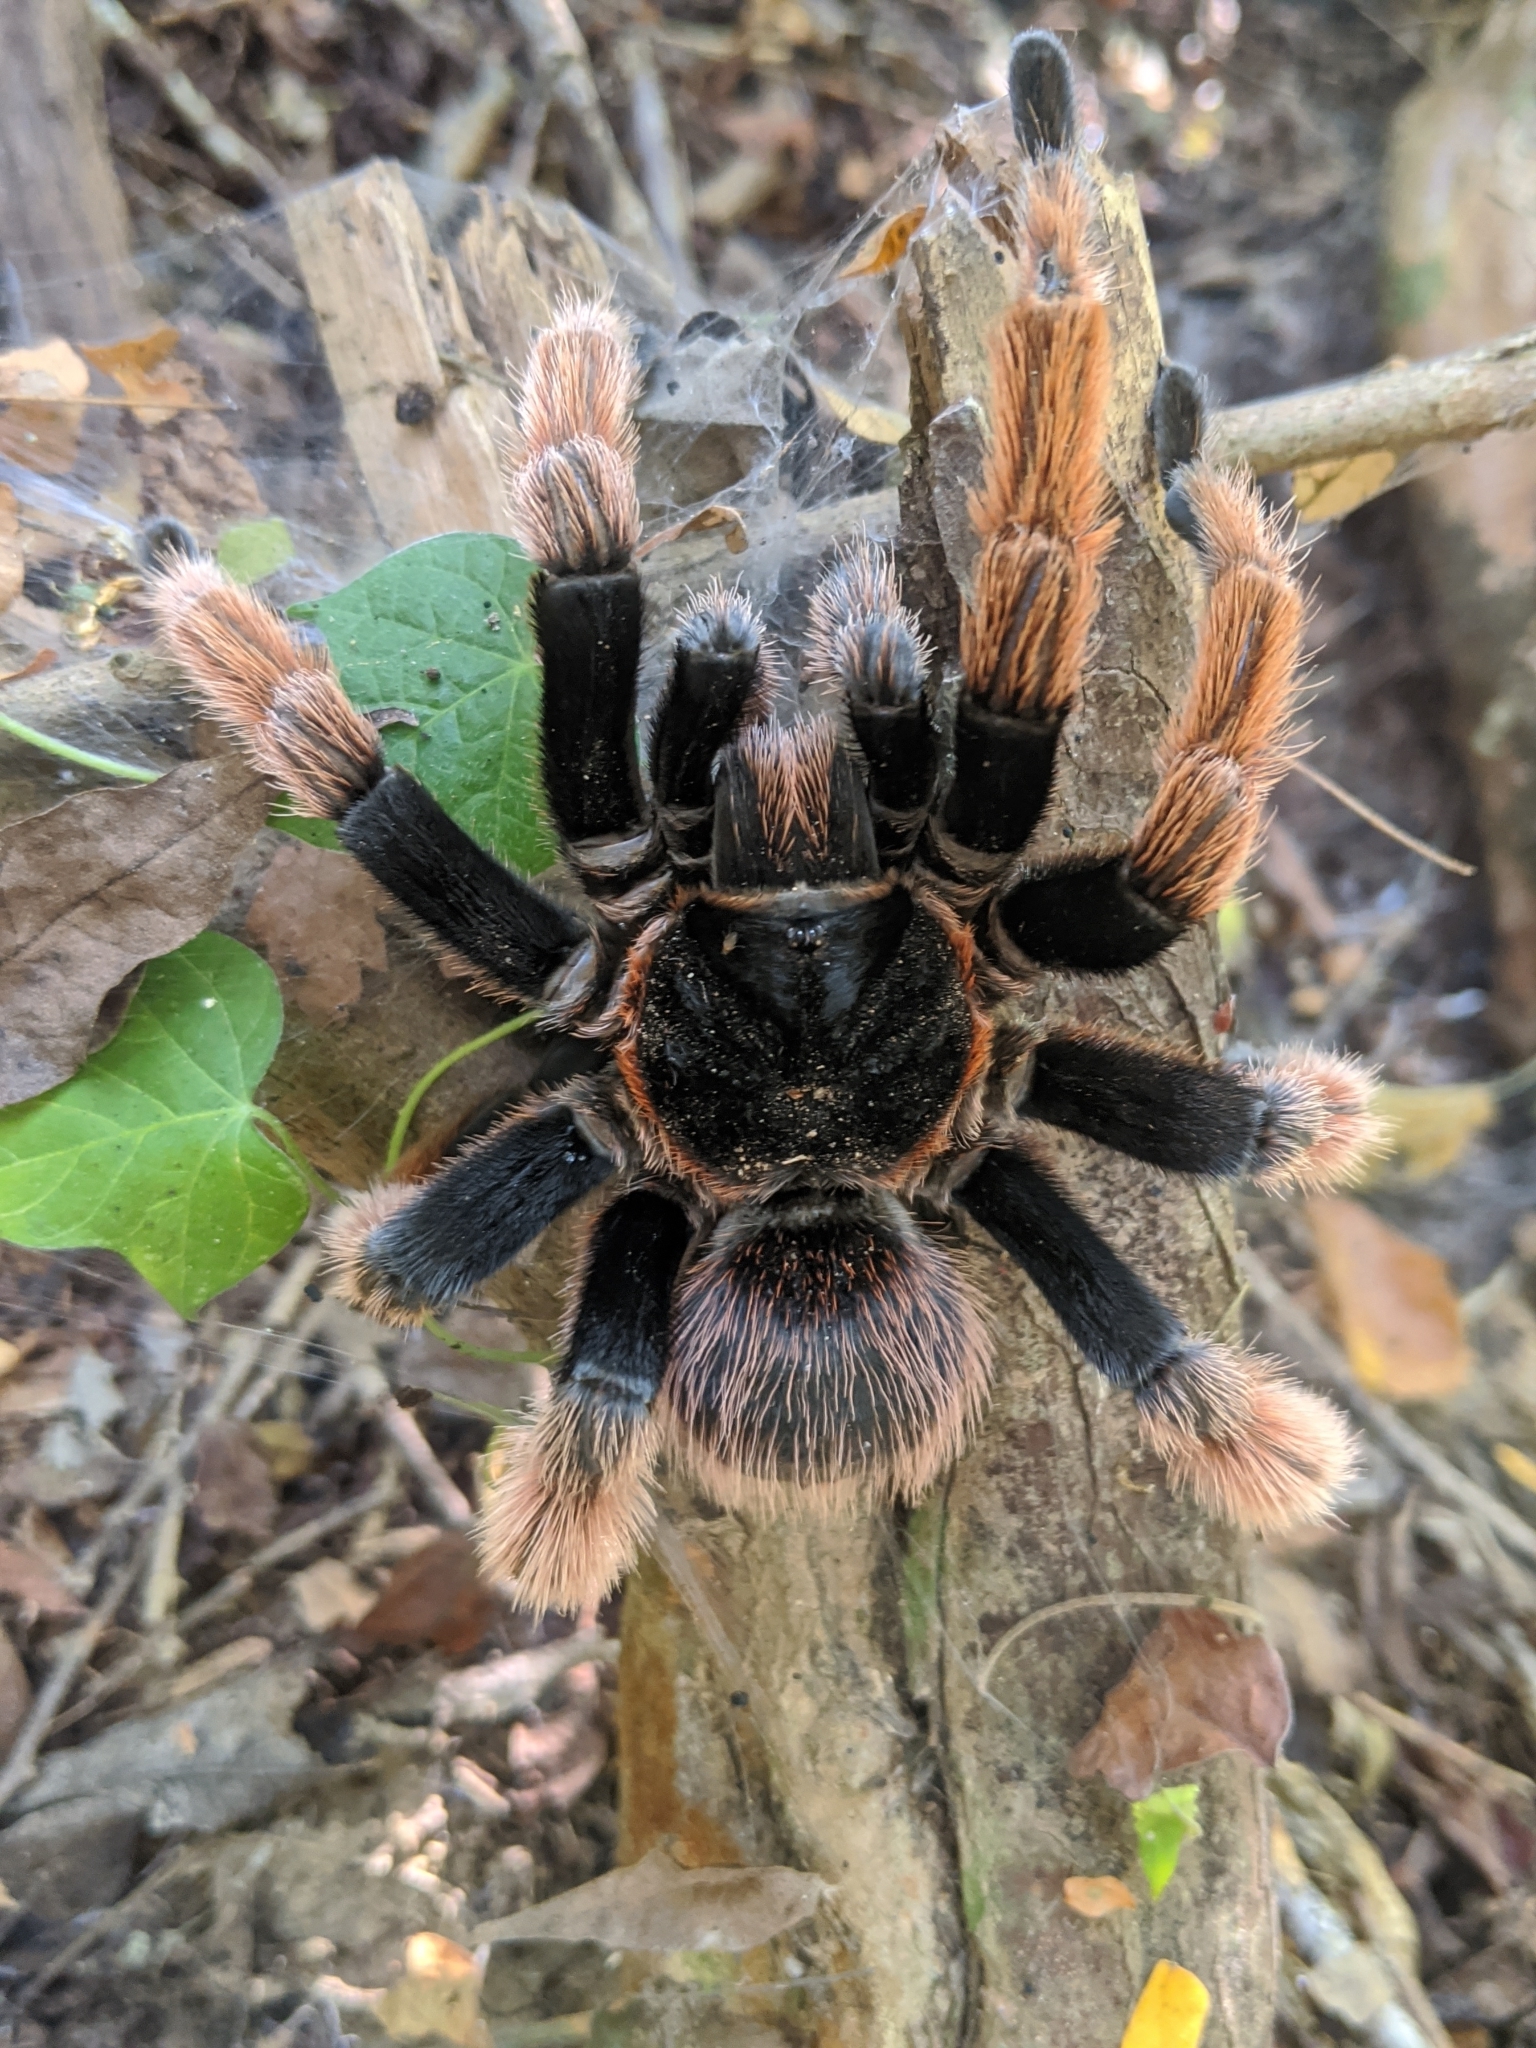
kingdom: Animalia
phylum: Arthropoda
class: Arachnida
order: Araneae
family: Theraphosidae
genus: Brachypelma
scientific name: Brachypelma klaasi
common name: Mexican pink beauty
